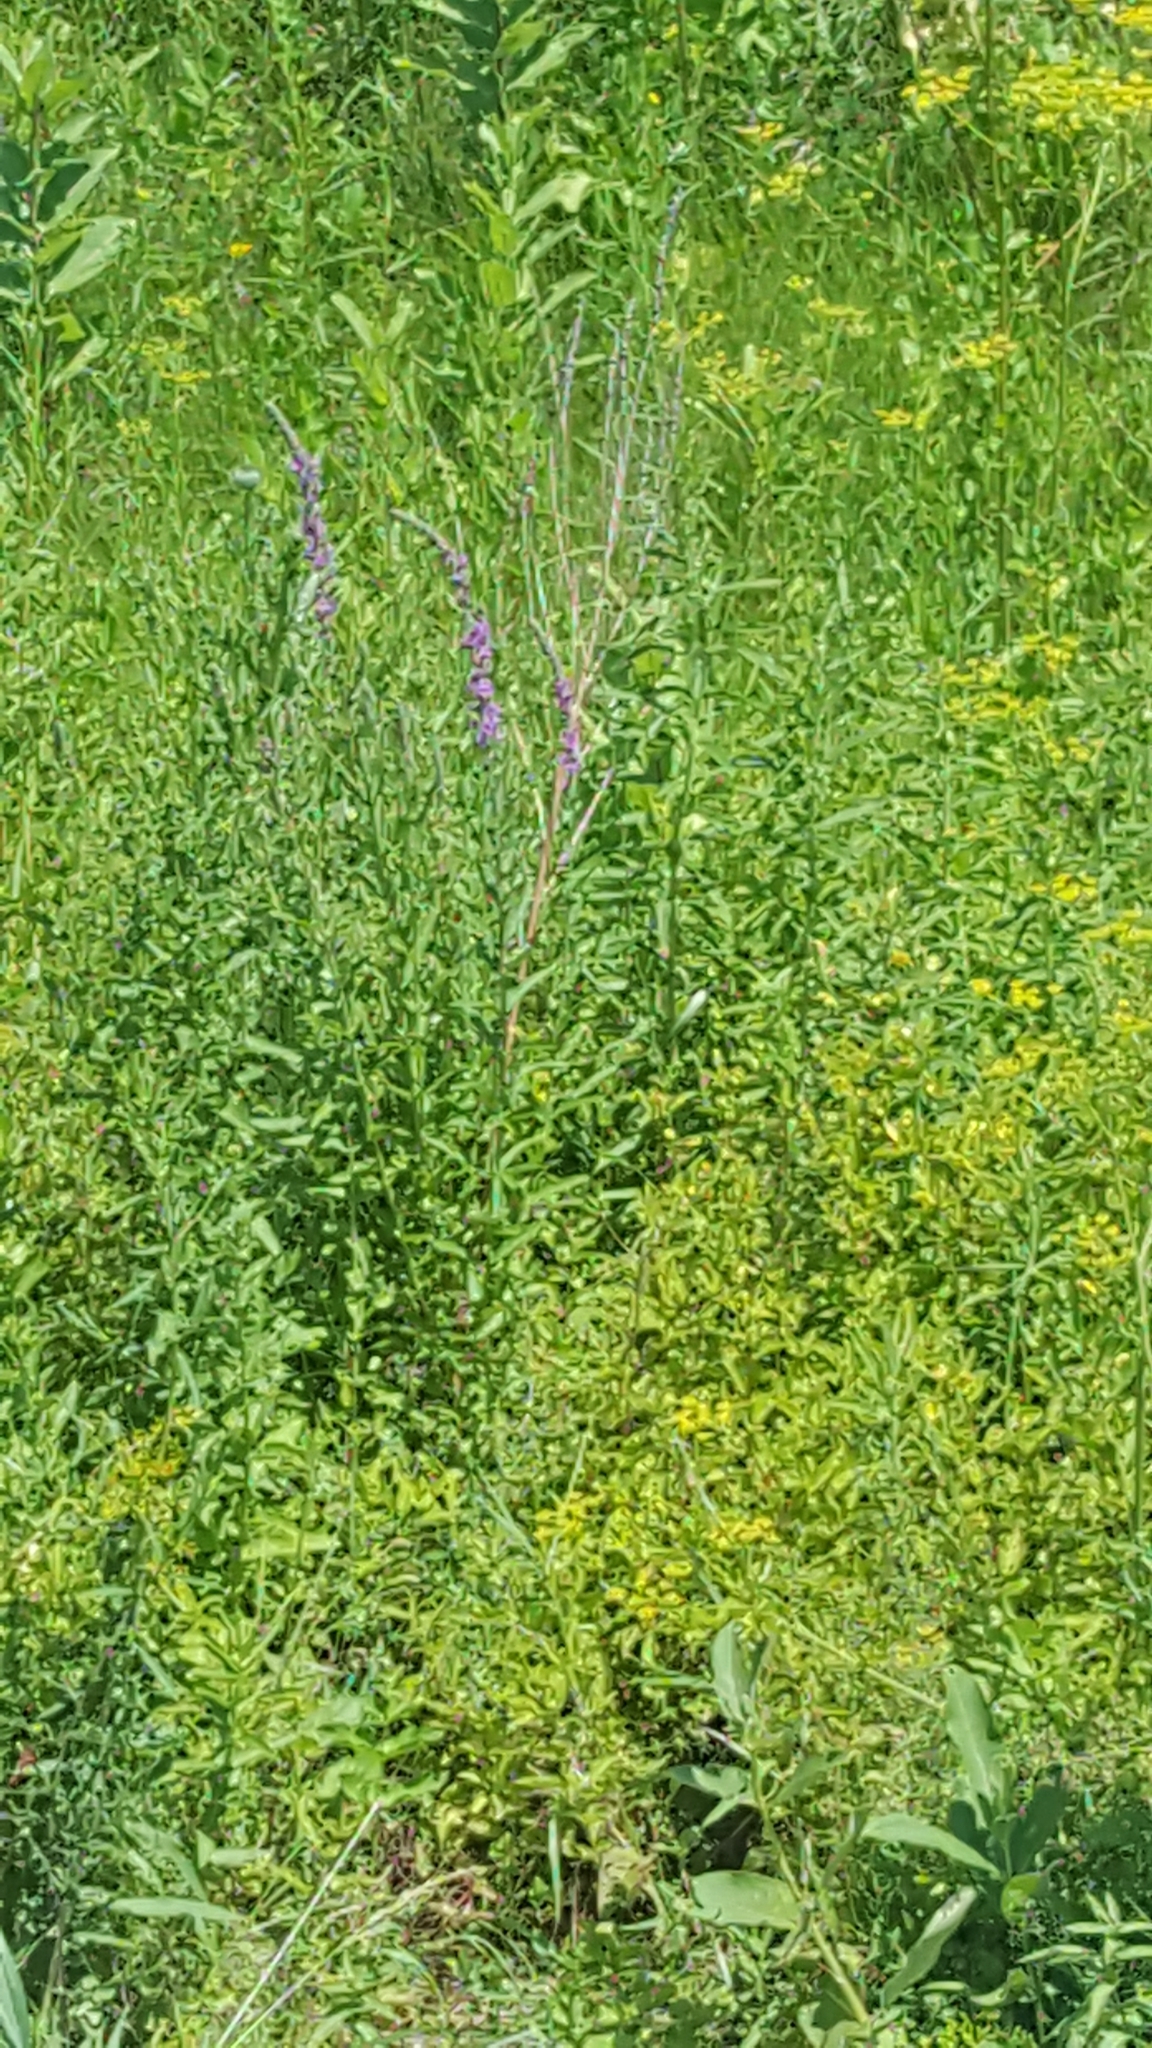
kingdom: Plantae
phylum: Tracheophyta
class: Magnoliopsida
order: Myrtales
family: Lythraceae
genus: Lythrum
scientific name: Lythrum salicaria
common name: Purple loosestrife
